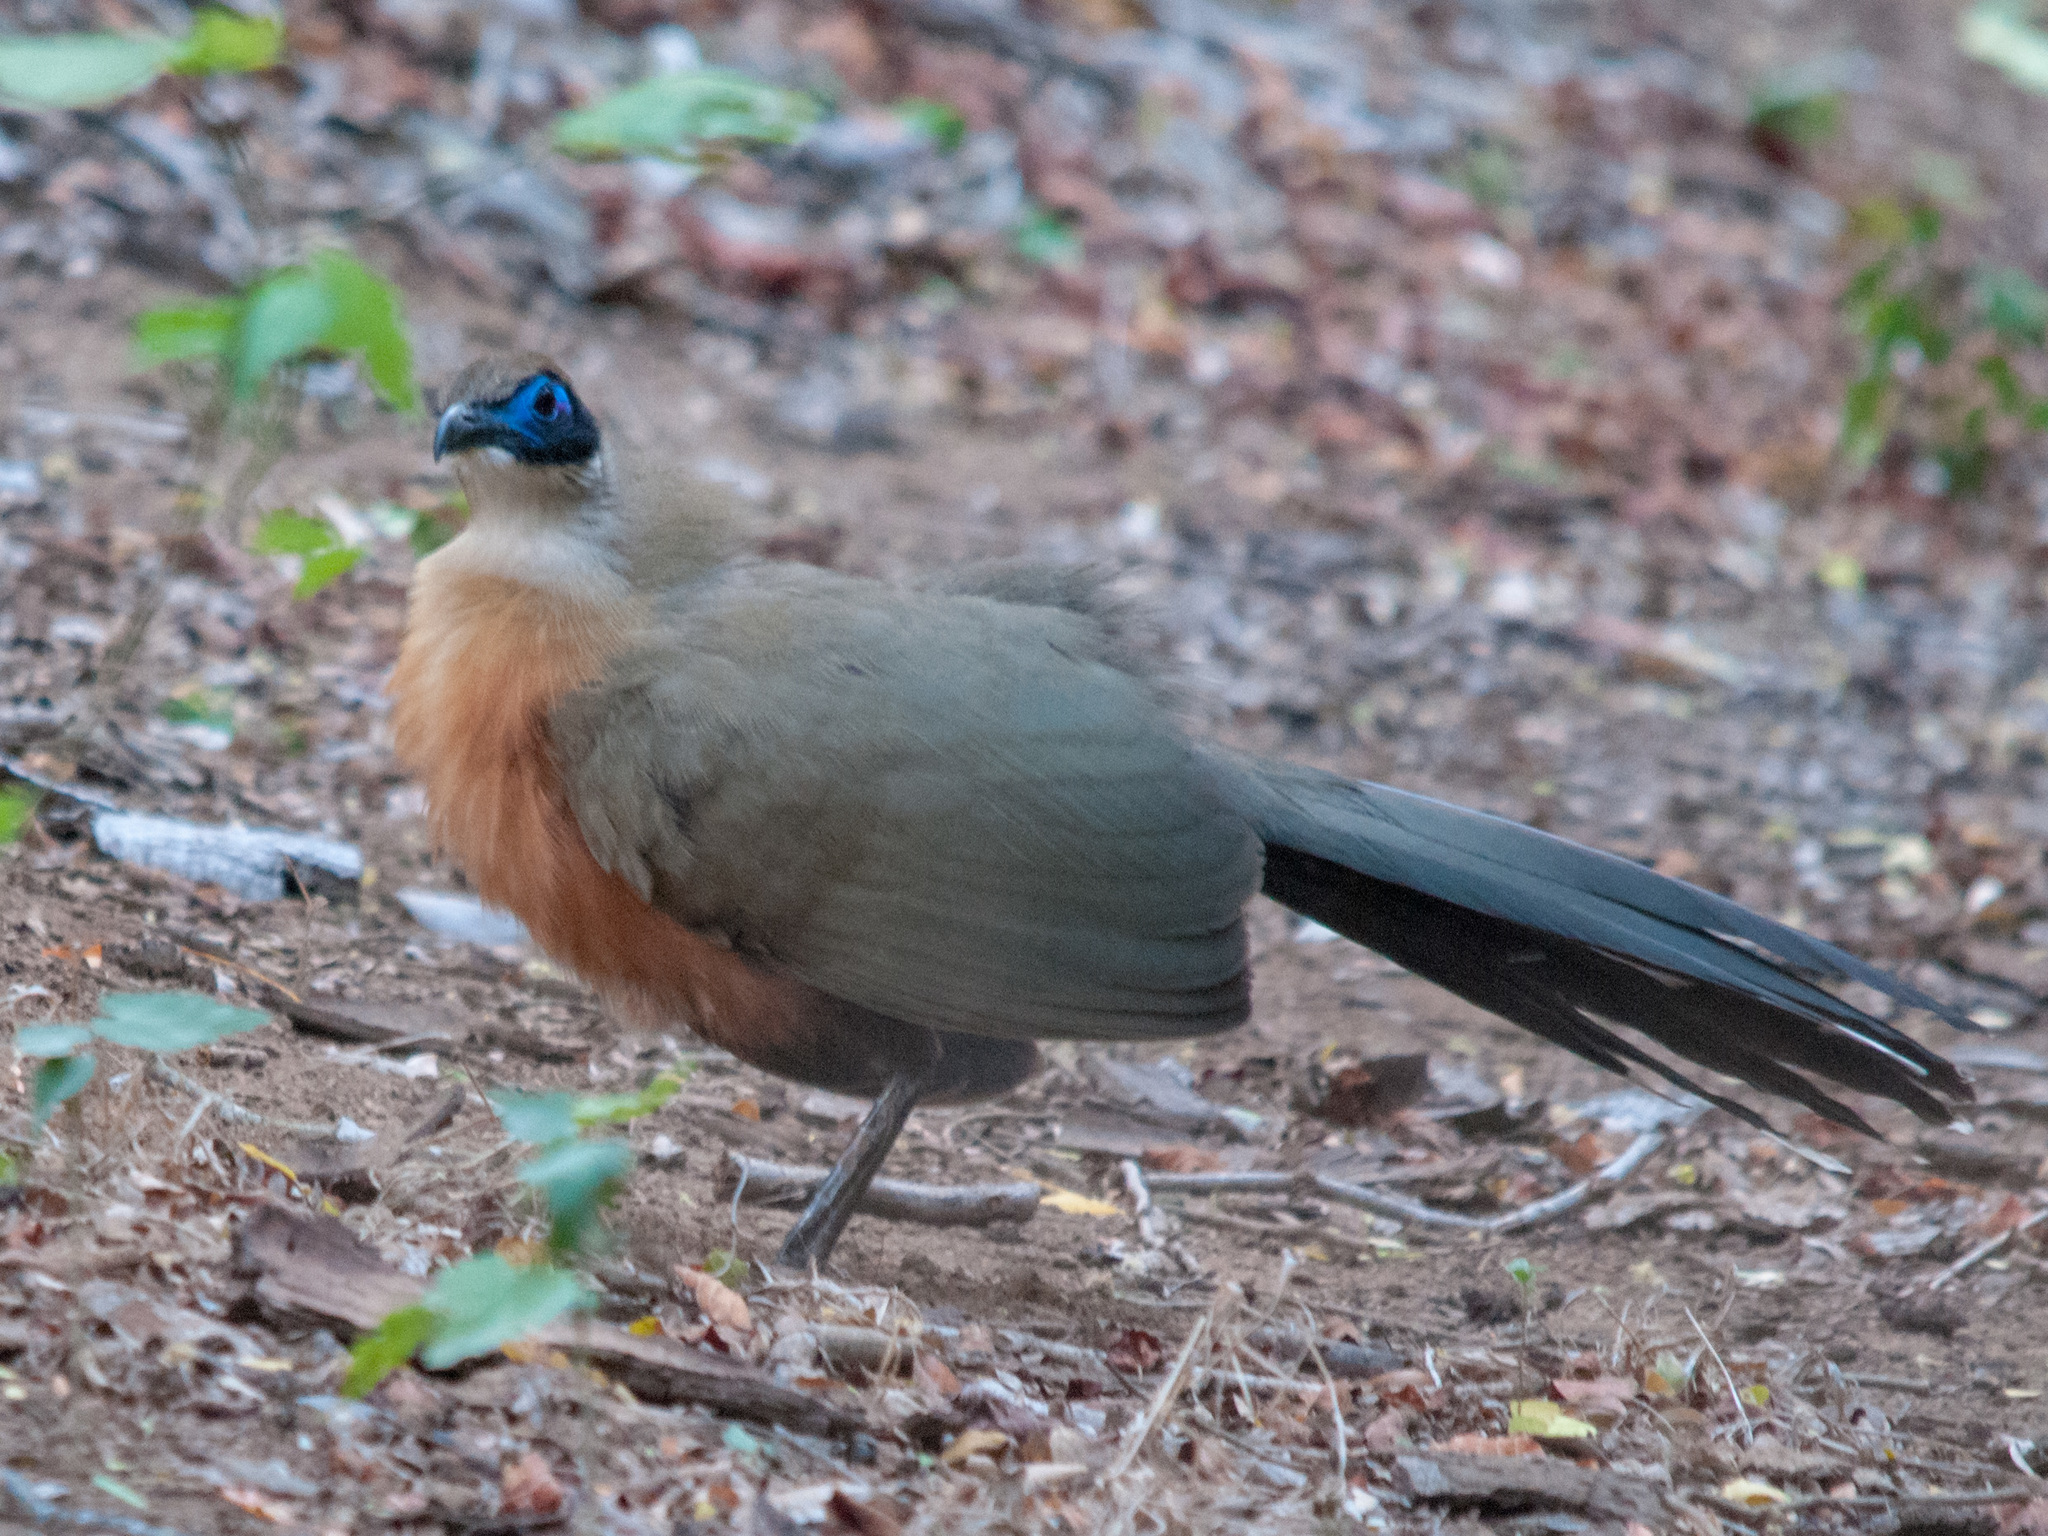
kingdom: Animalia
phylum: Chordata
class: Aves
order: Cuculiformes
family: Cuculidae
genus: Coua
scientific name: Coua gigas
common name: Giant coua
